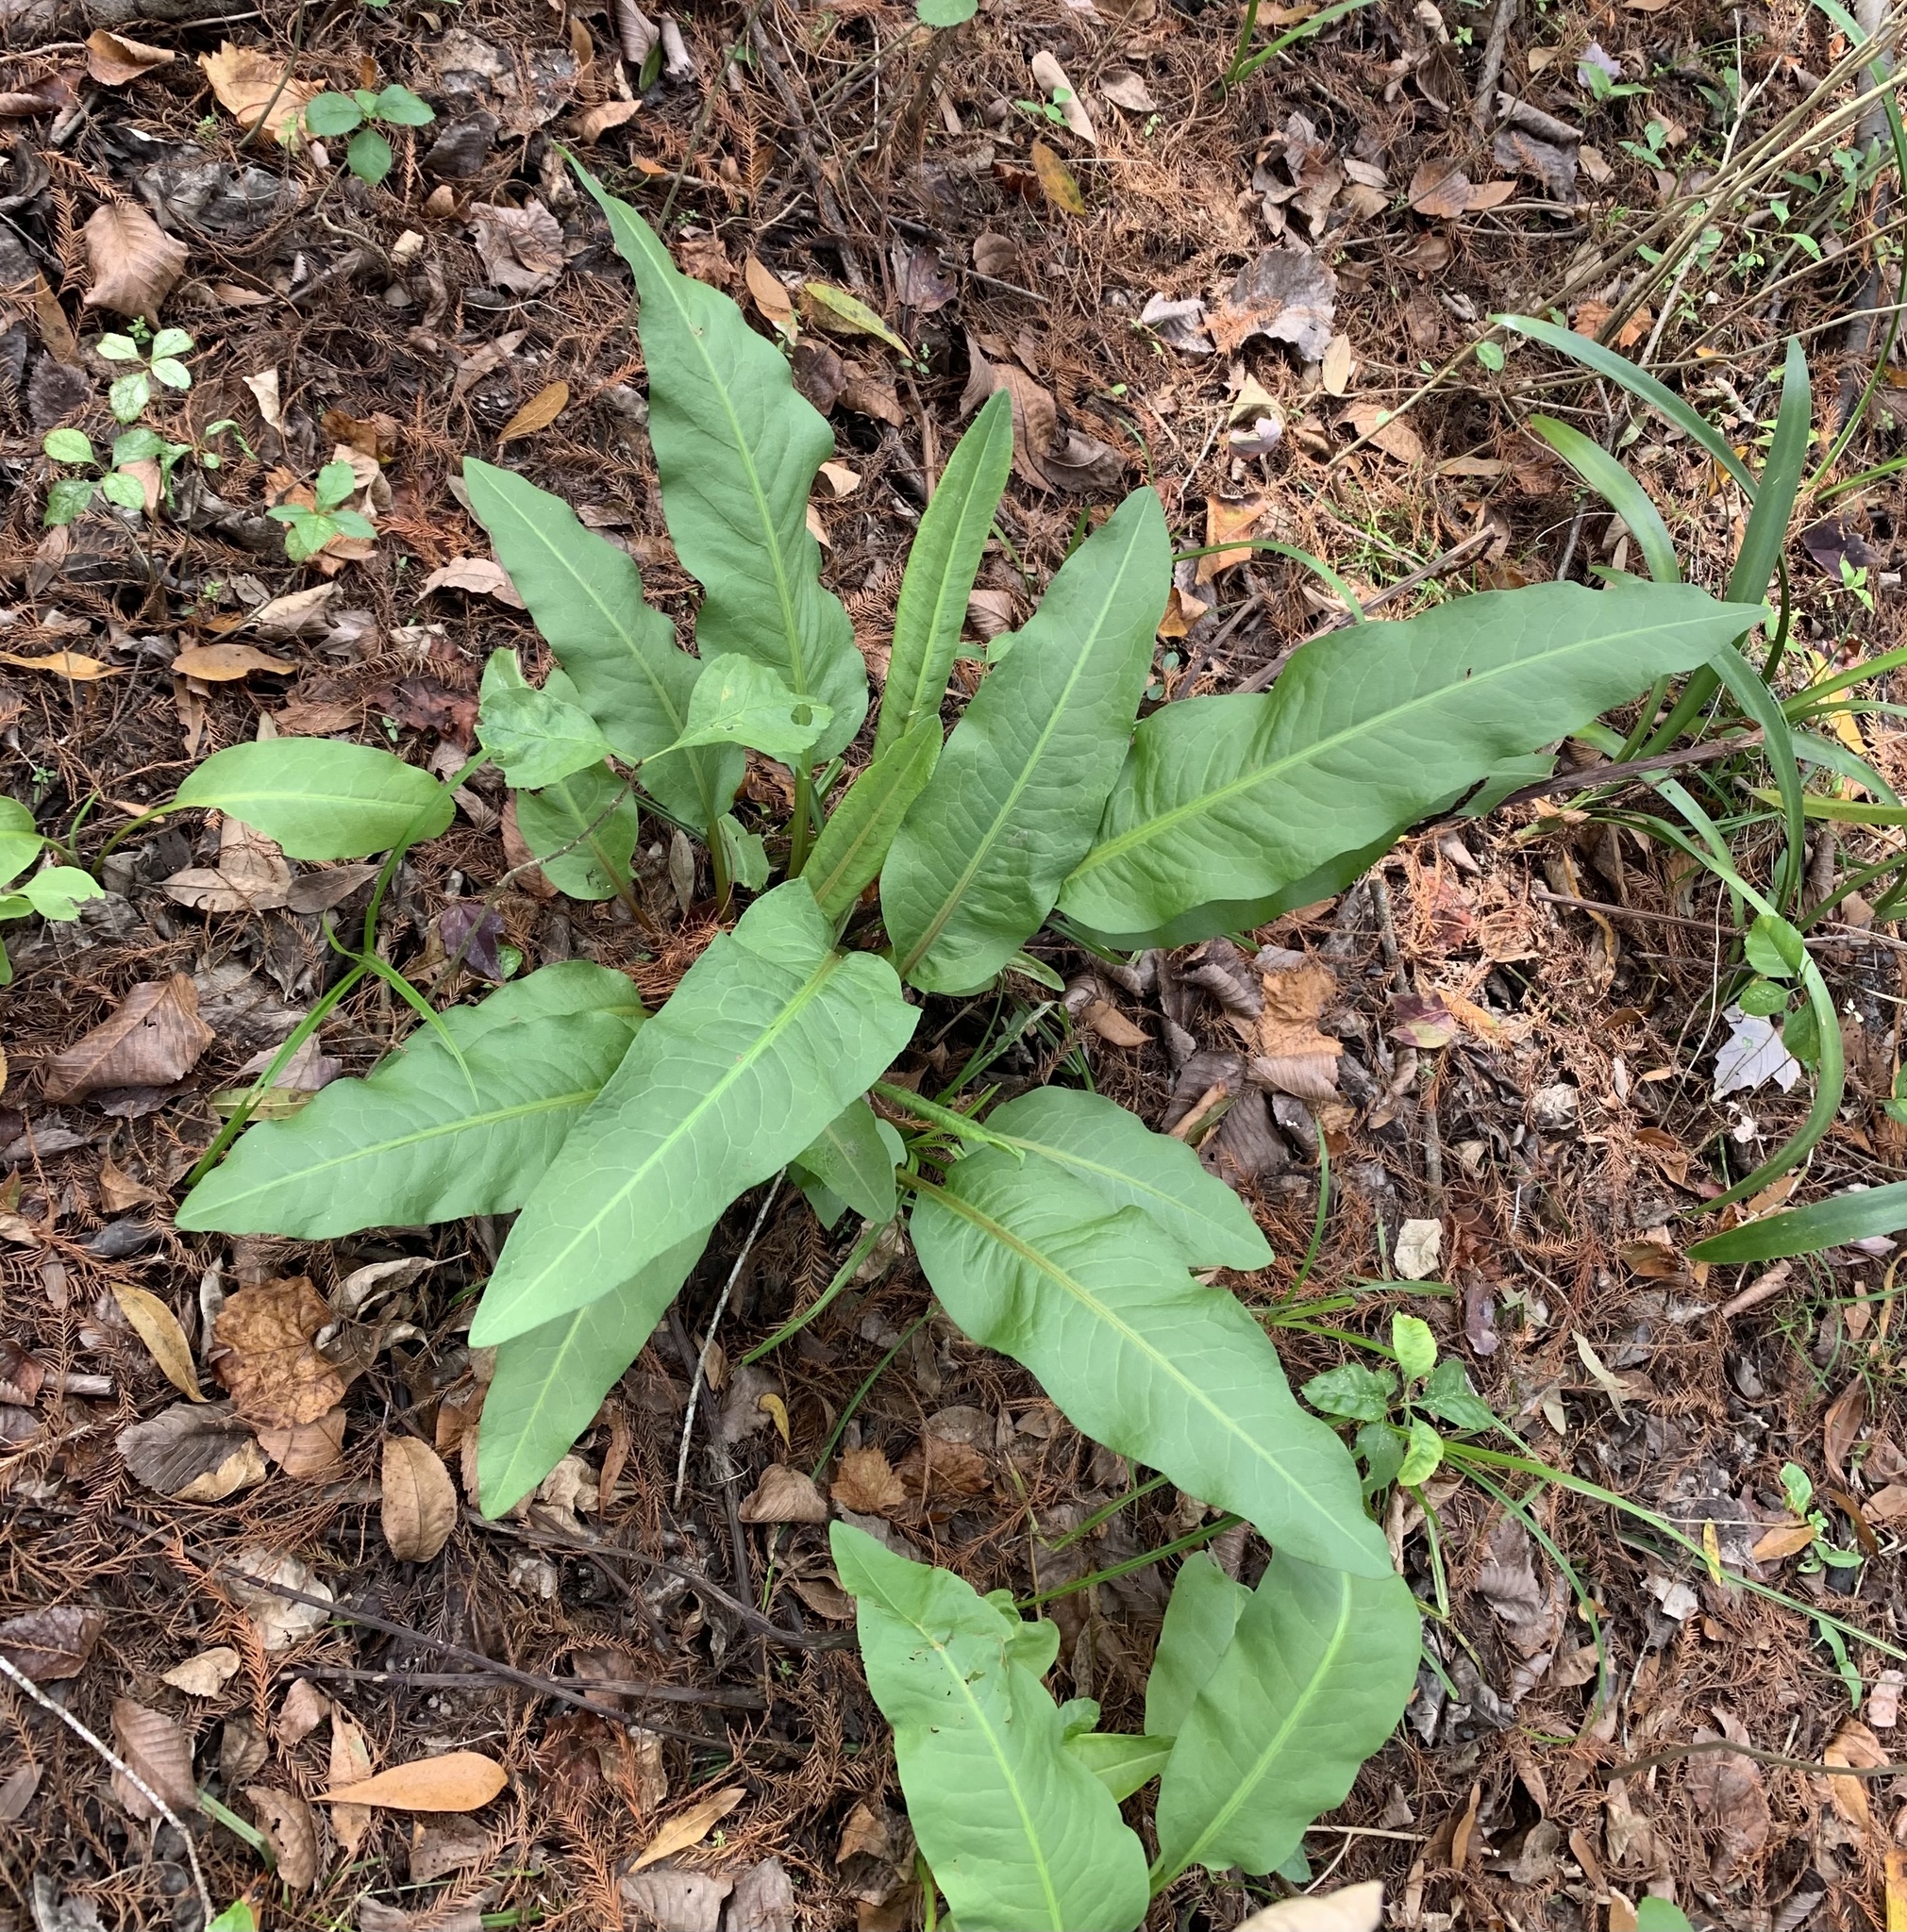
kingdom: Plantae
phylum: Tracheophyta
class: Magnoliopsida
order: Caryophyllales
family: Polygonaceae
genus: Rumex
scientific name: Rumex verticillatus
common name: Swamp dock
